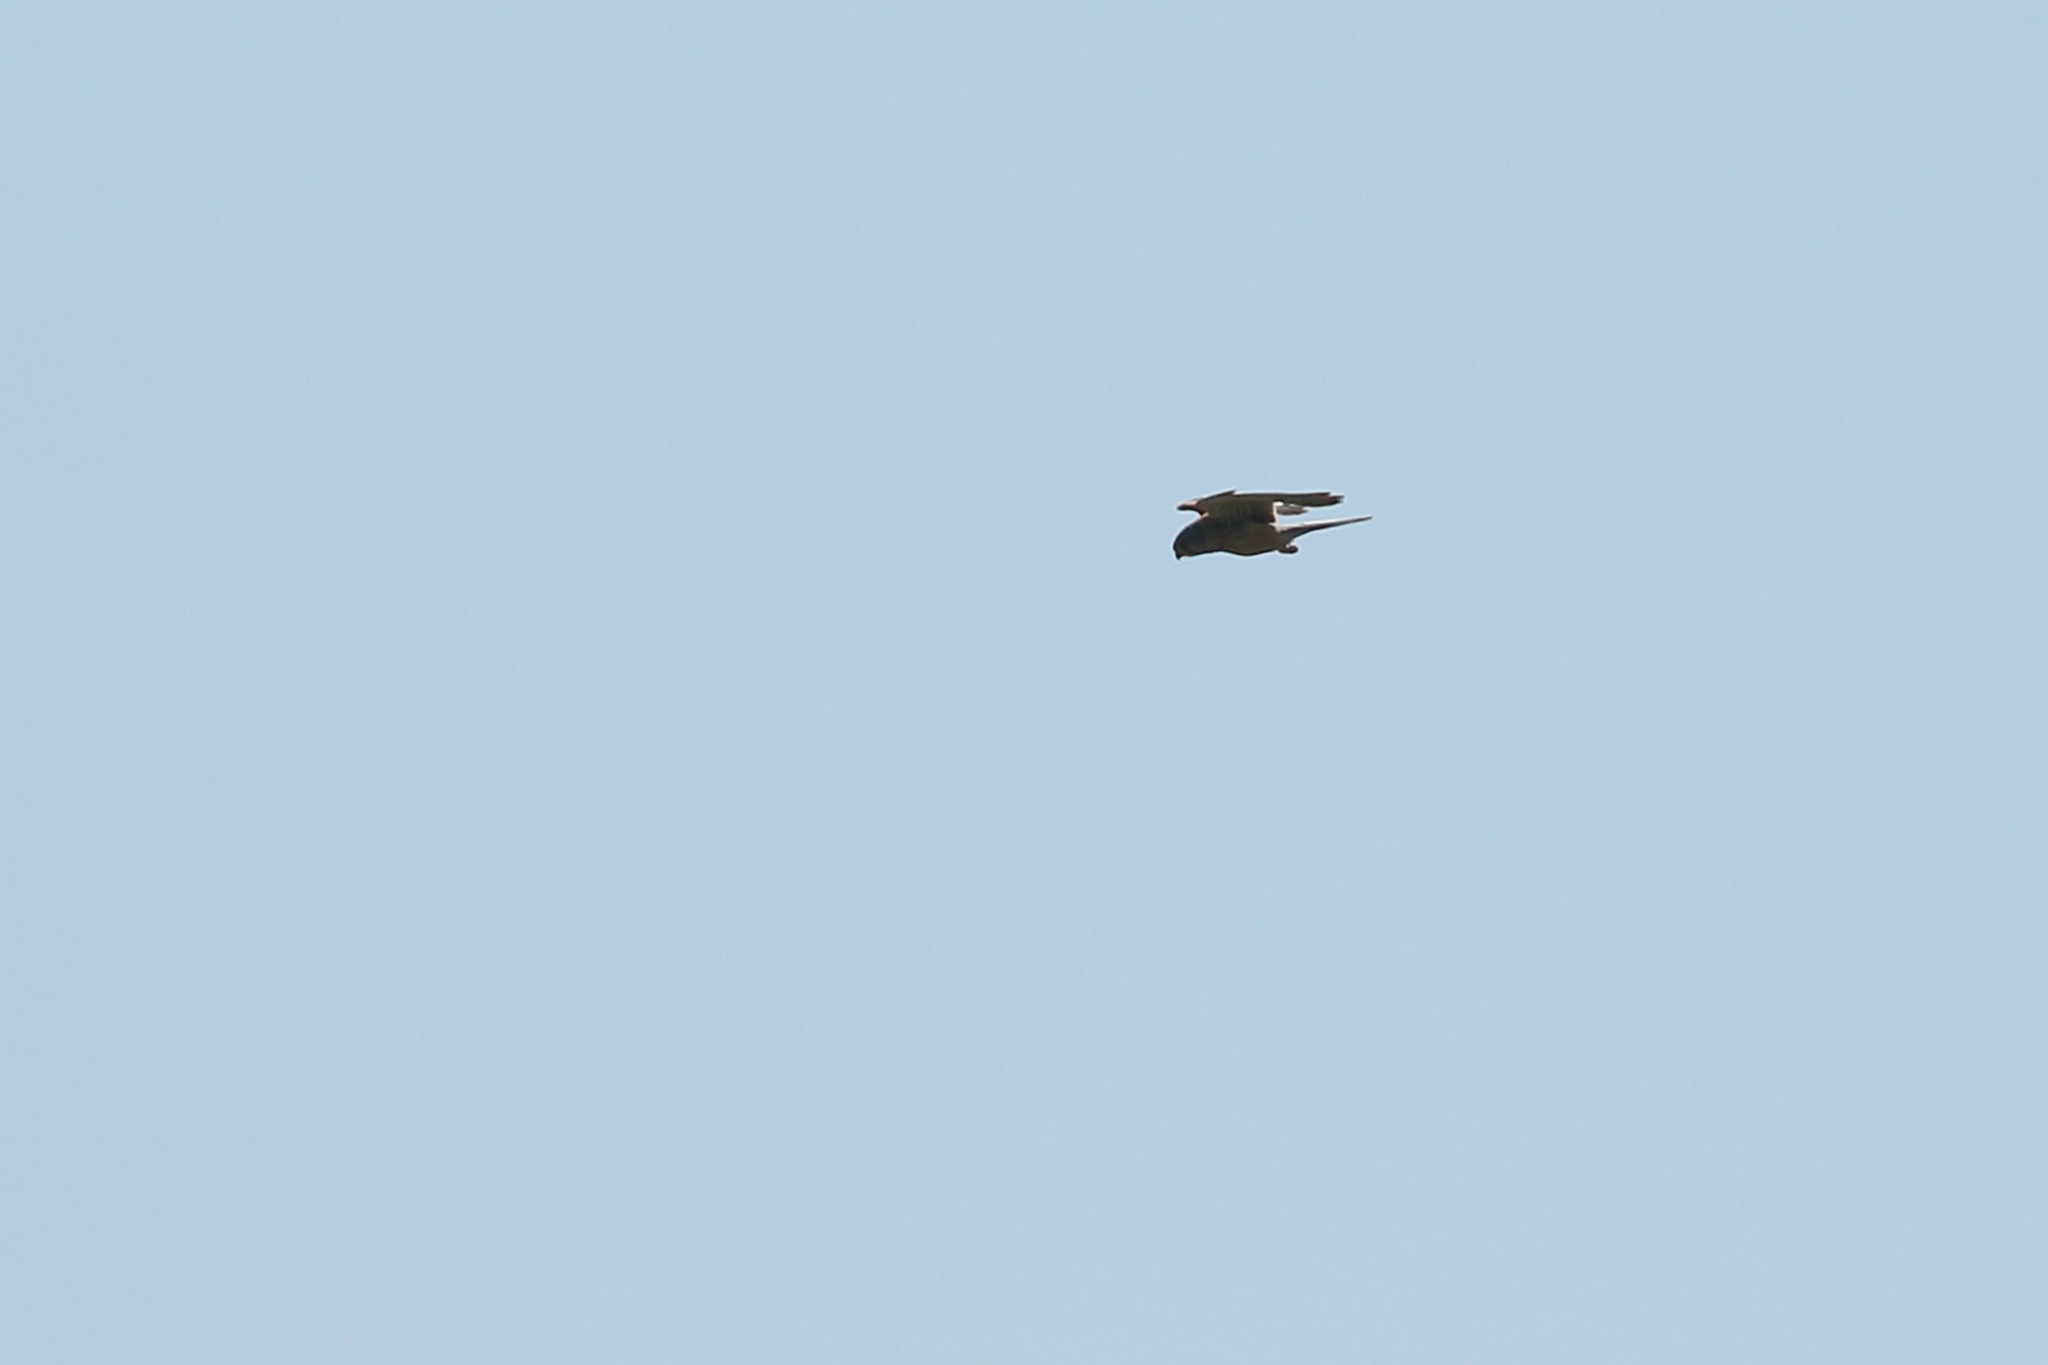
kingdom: Animalia
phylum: Chordata
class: Aves
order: Falconiformes
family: Falconidae
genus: Falco
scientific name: Falco tinnunculus
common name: Common kestrel
